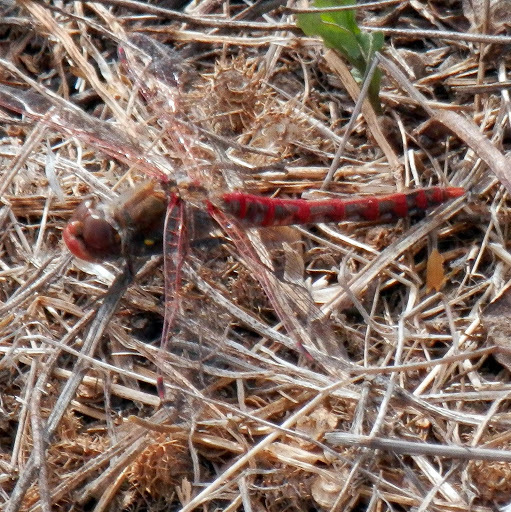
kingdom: Animalia
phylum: Arthropoda
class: Insecta
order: Odonata
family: Libellulidae
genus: Sympetrum
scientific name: Sympetrum corruptum
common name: Variegated meadowhawk
